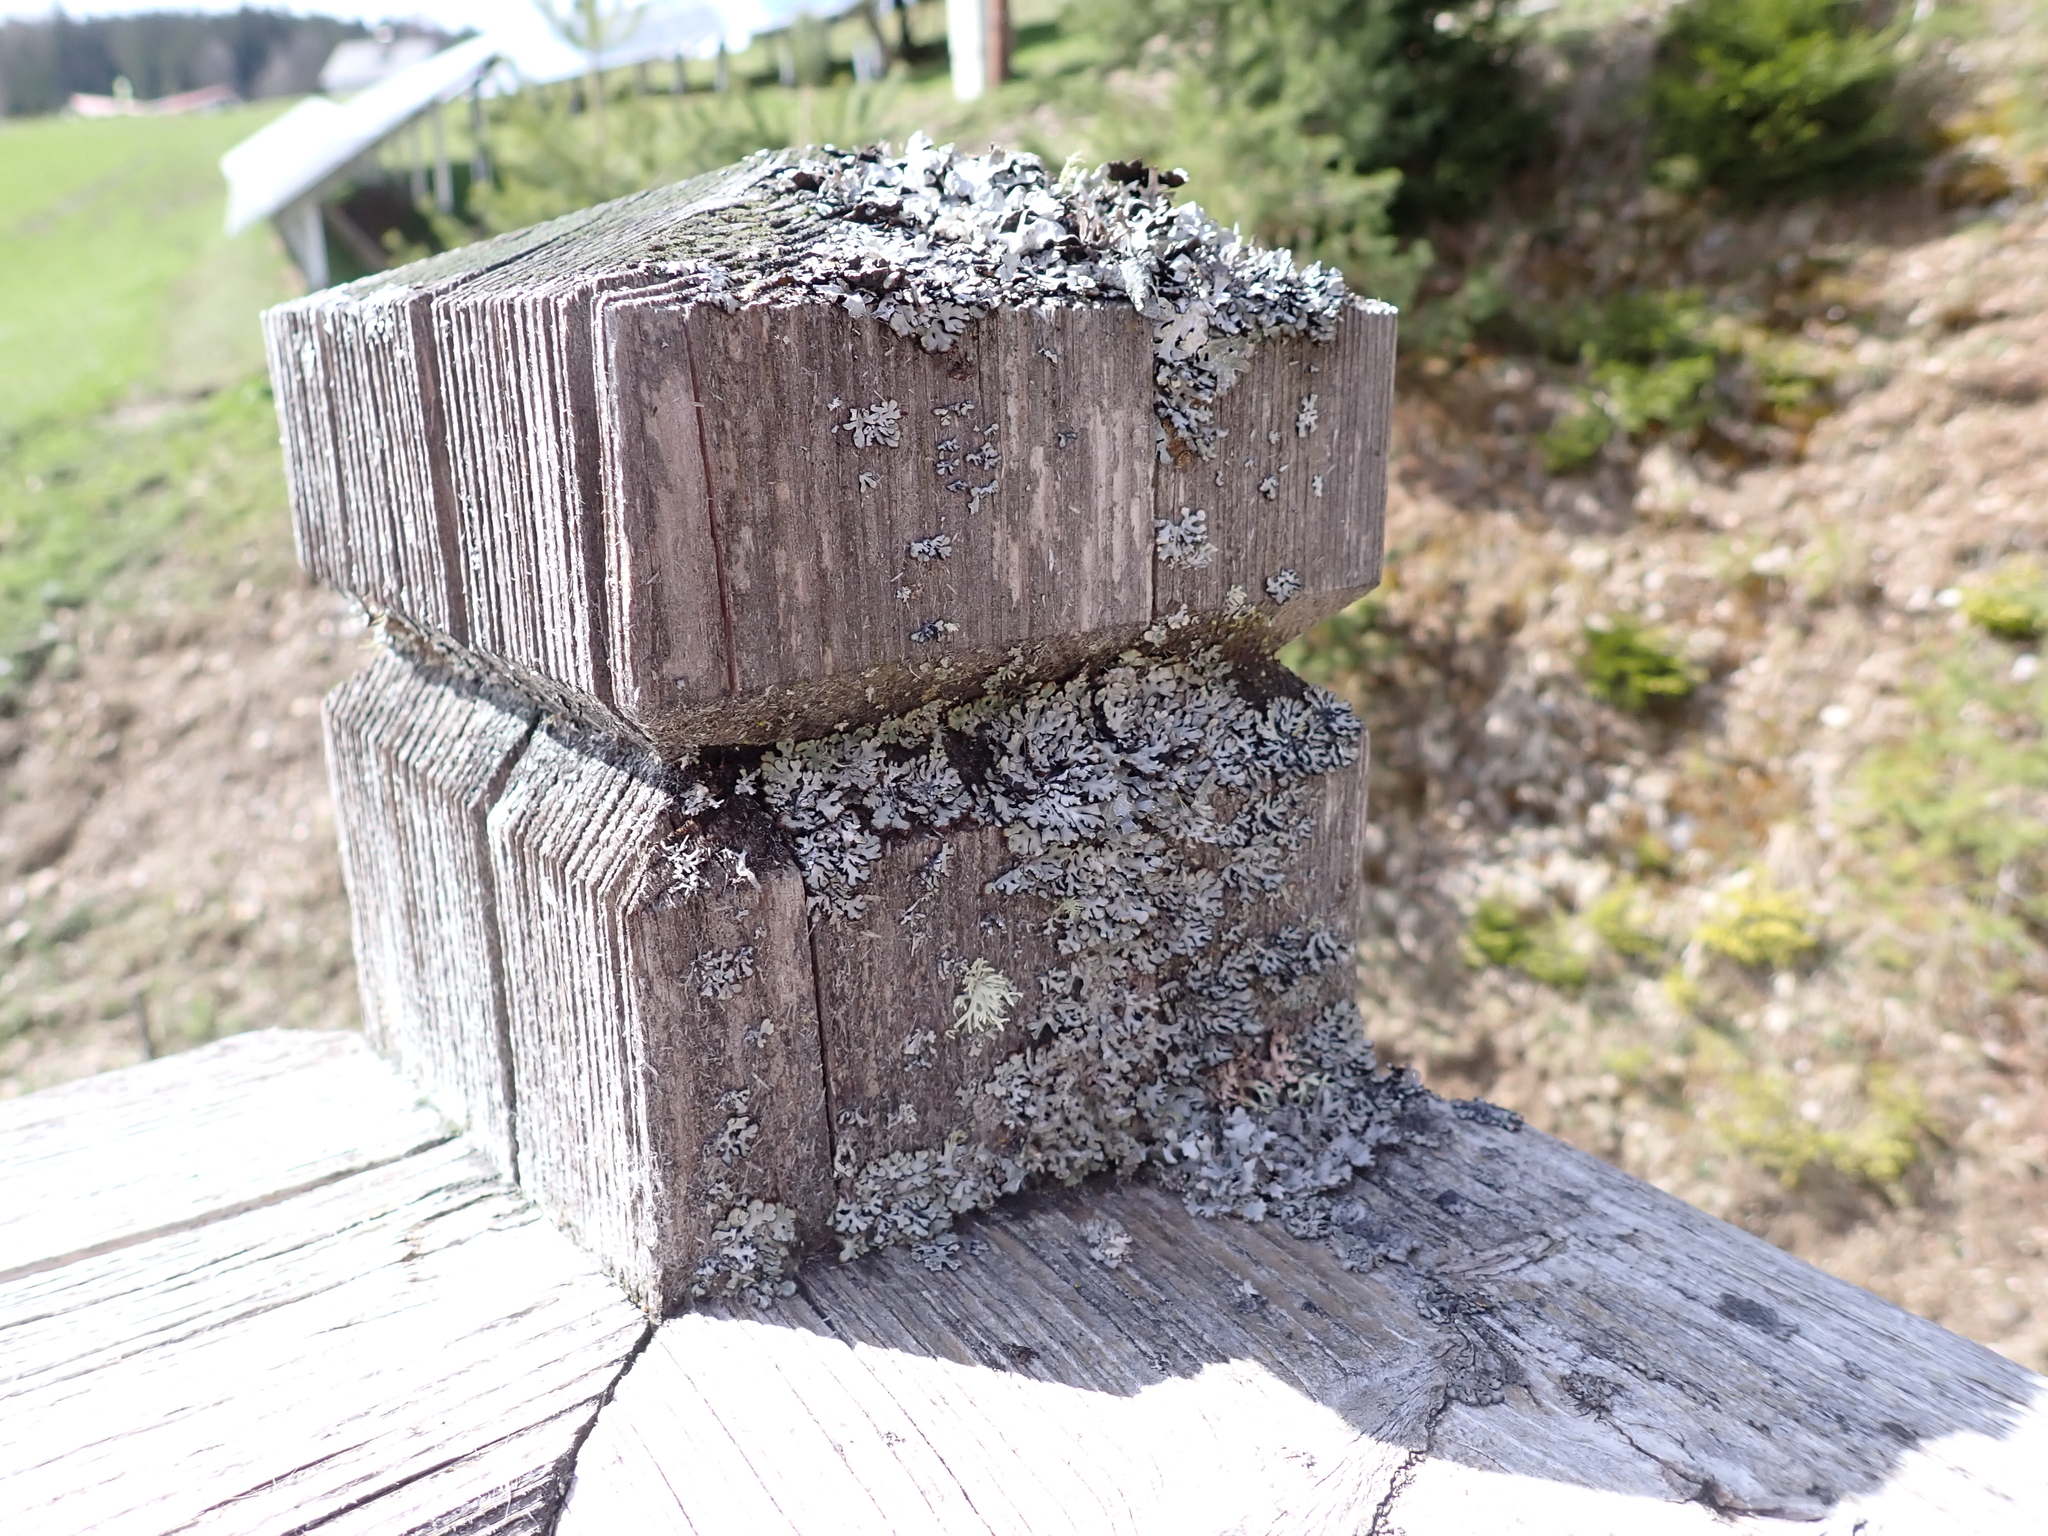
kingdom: Fungi
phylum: Ascomycota
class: Lecanoromycetes
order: Lecanorales
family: Parmeliaceae
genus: Hypogymnia
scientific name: Hypogymnia physodes
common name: Dark crottle
